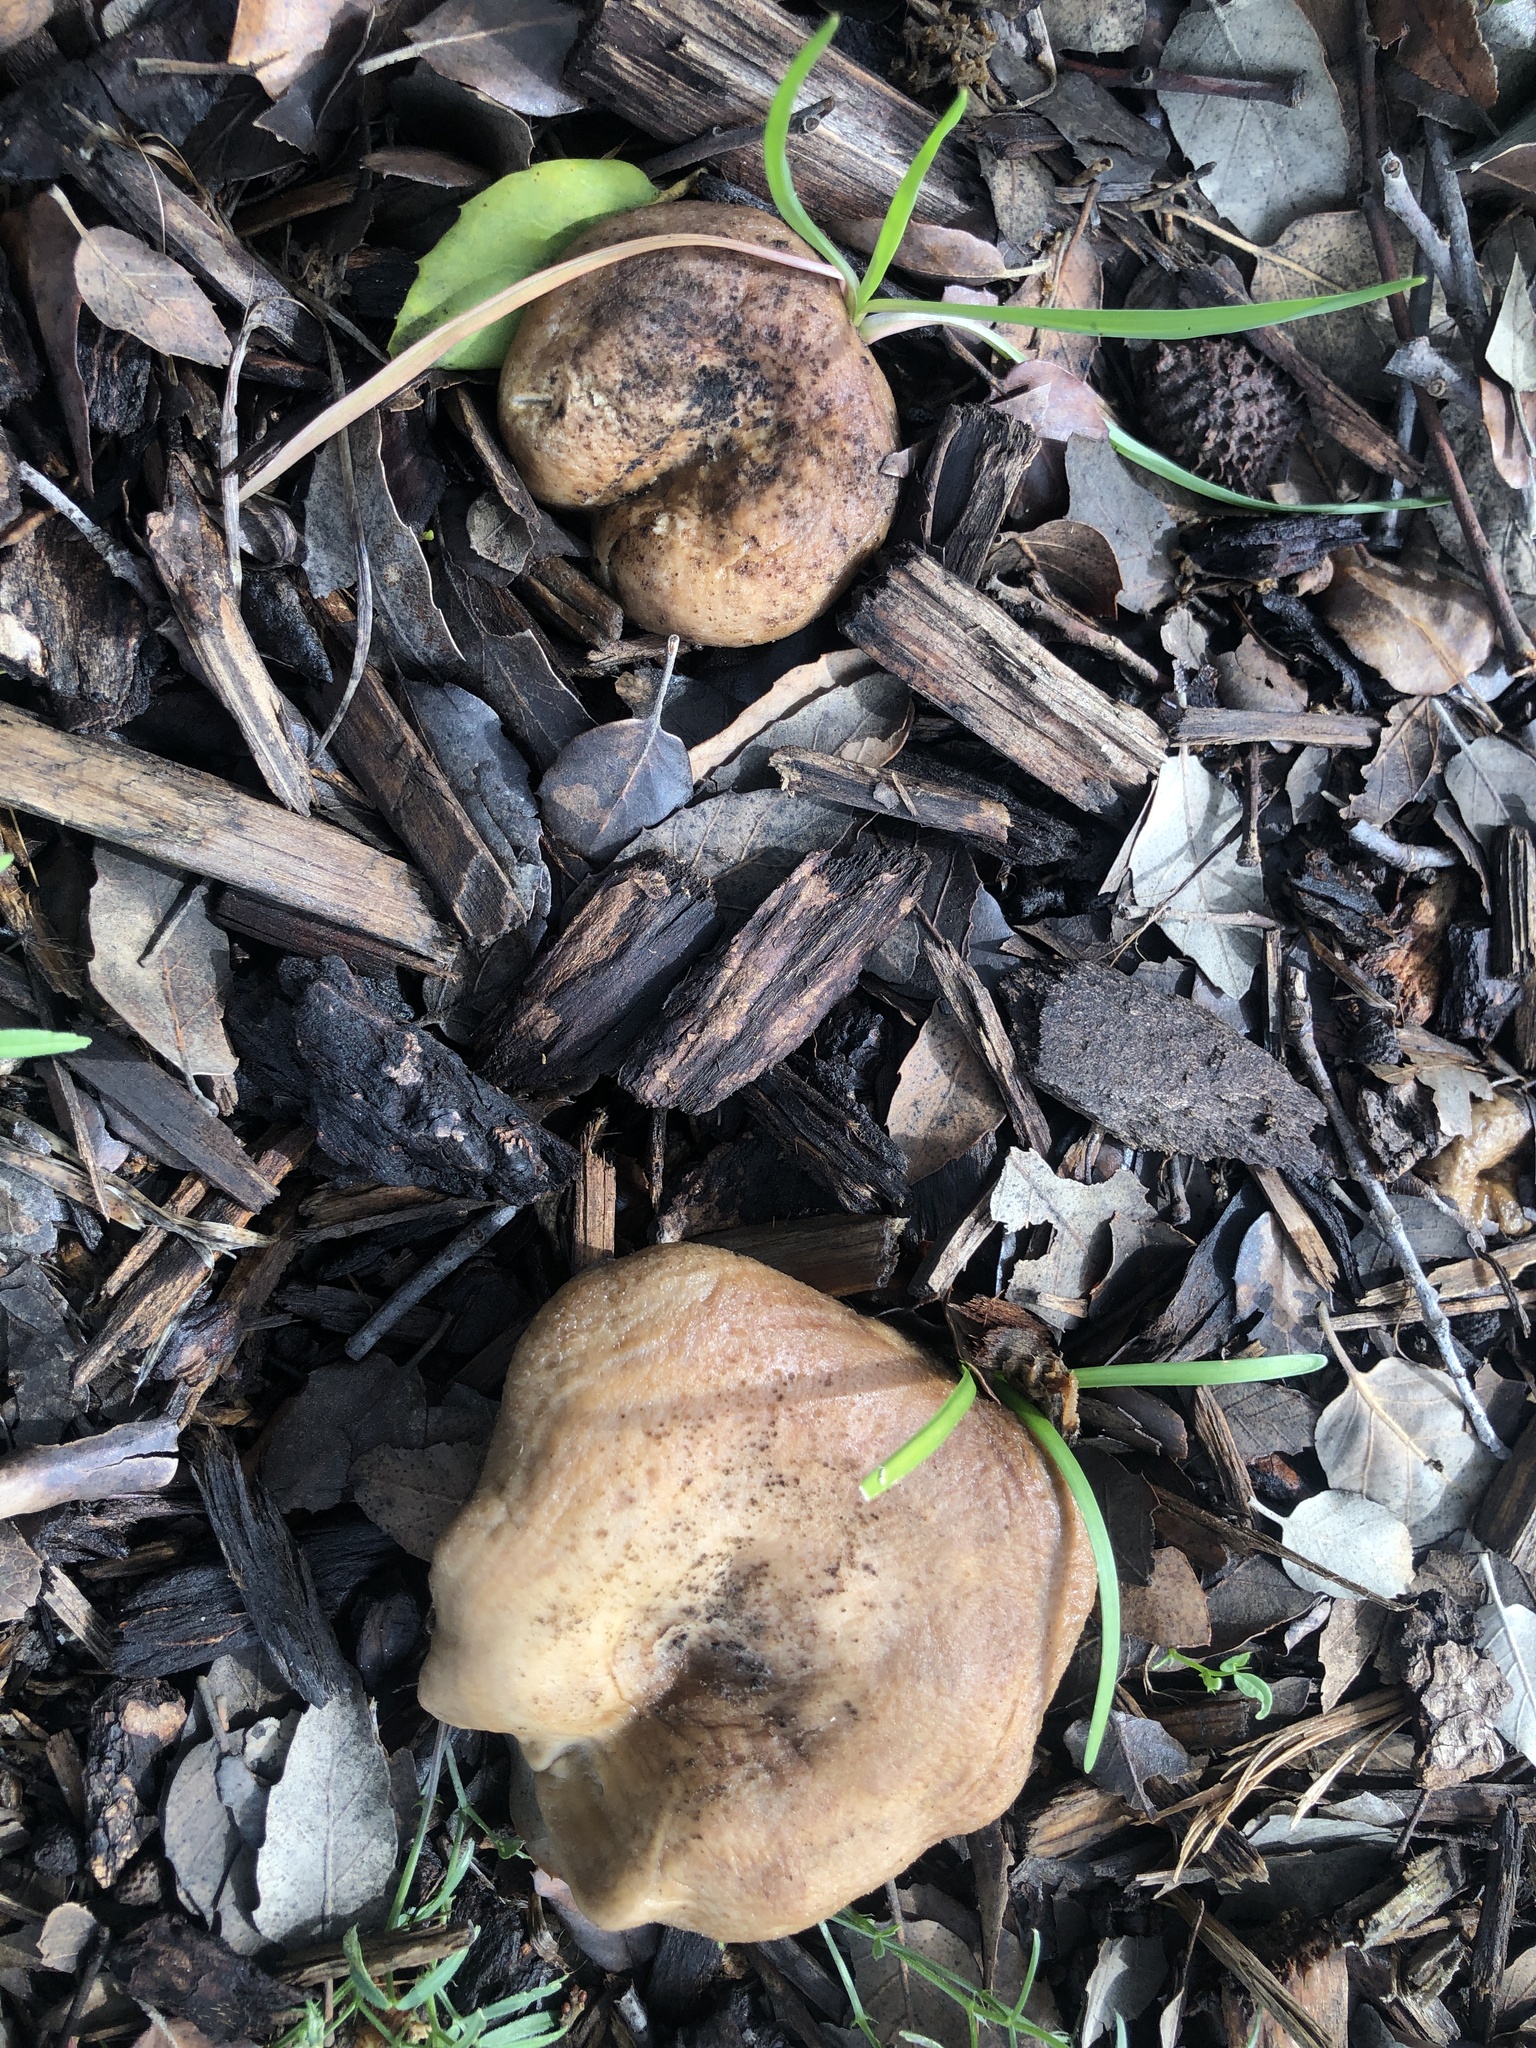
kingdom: Fungi
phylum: Basidiomycota
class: Agaricomycetes
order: Russulales
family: Russulaceae
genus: Lactarius
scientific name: Lactarius alnicola
